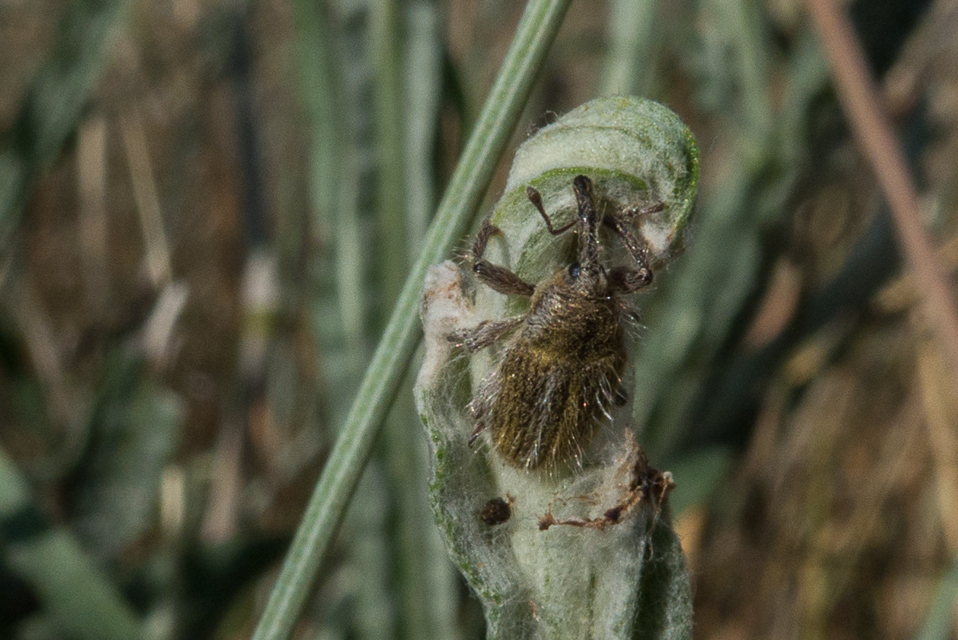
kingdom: Animalia
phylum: Arthropoda
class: Insecta
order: Coleoptera
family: Curculionidae
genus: Larinus
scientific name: Larinus villosus
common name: Yellow starthistle hairy weevil
